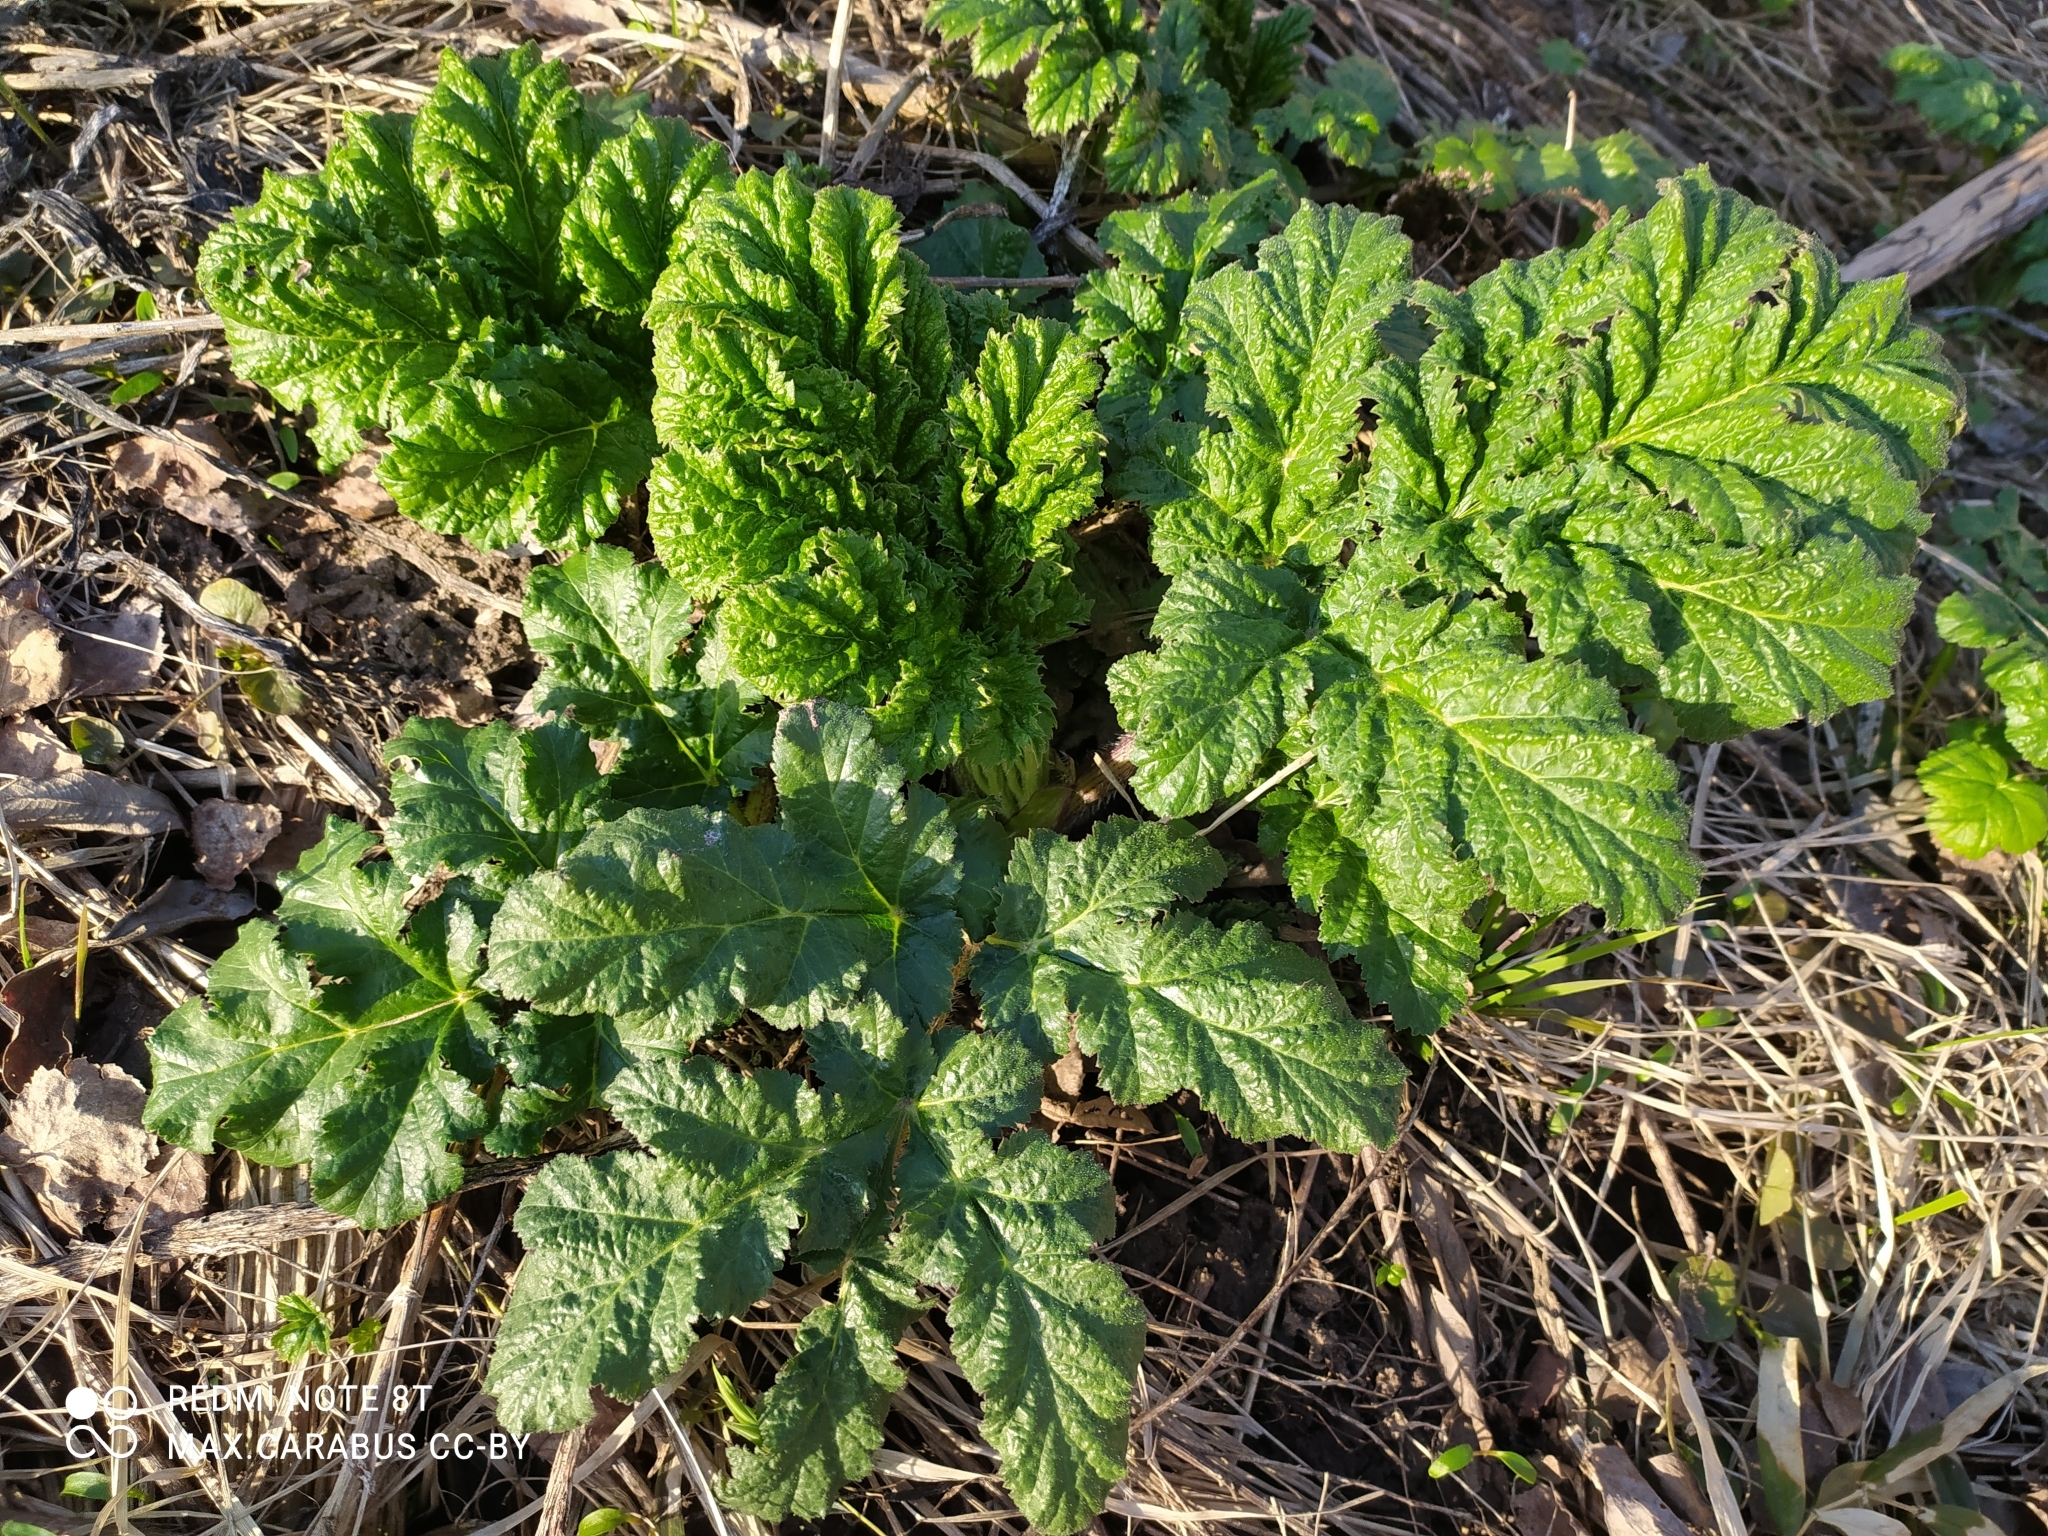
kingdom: Plantae
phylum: Tracheophyta
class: Magnoliopsida
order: Apiales
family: Apiaceae
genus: Heracleum
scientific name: Heracleum sosnowskyi
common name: Sosnowsky's hogweed
